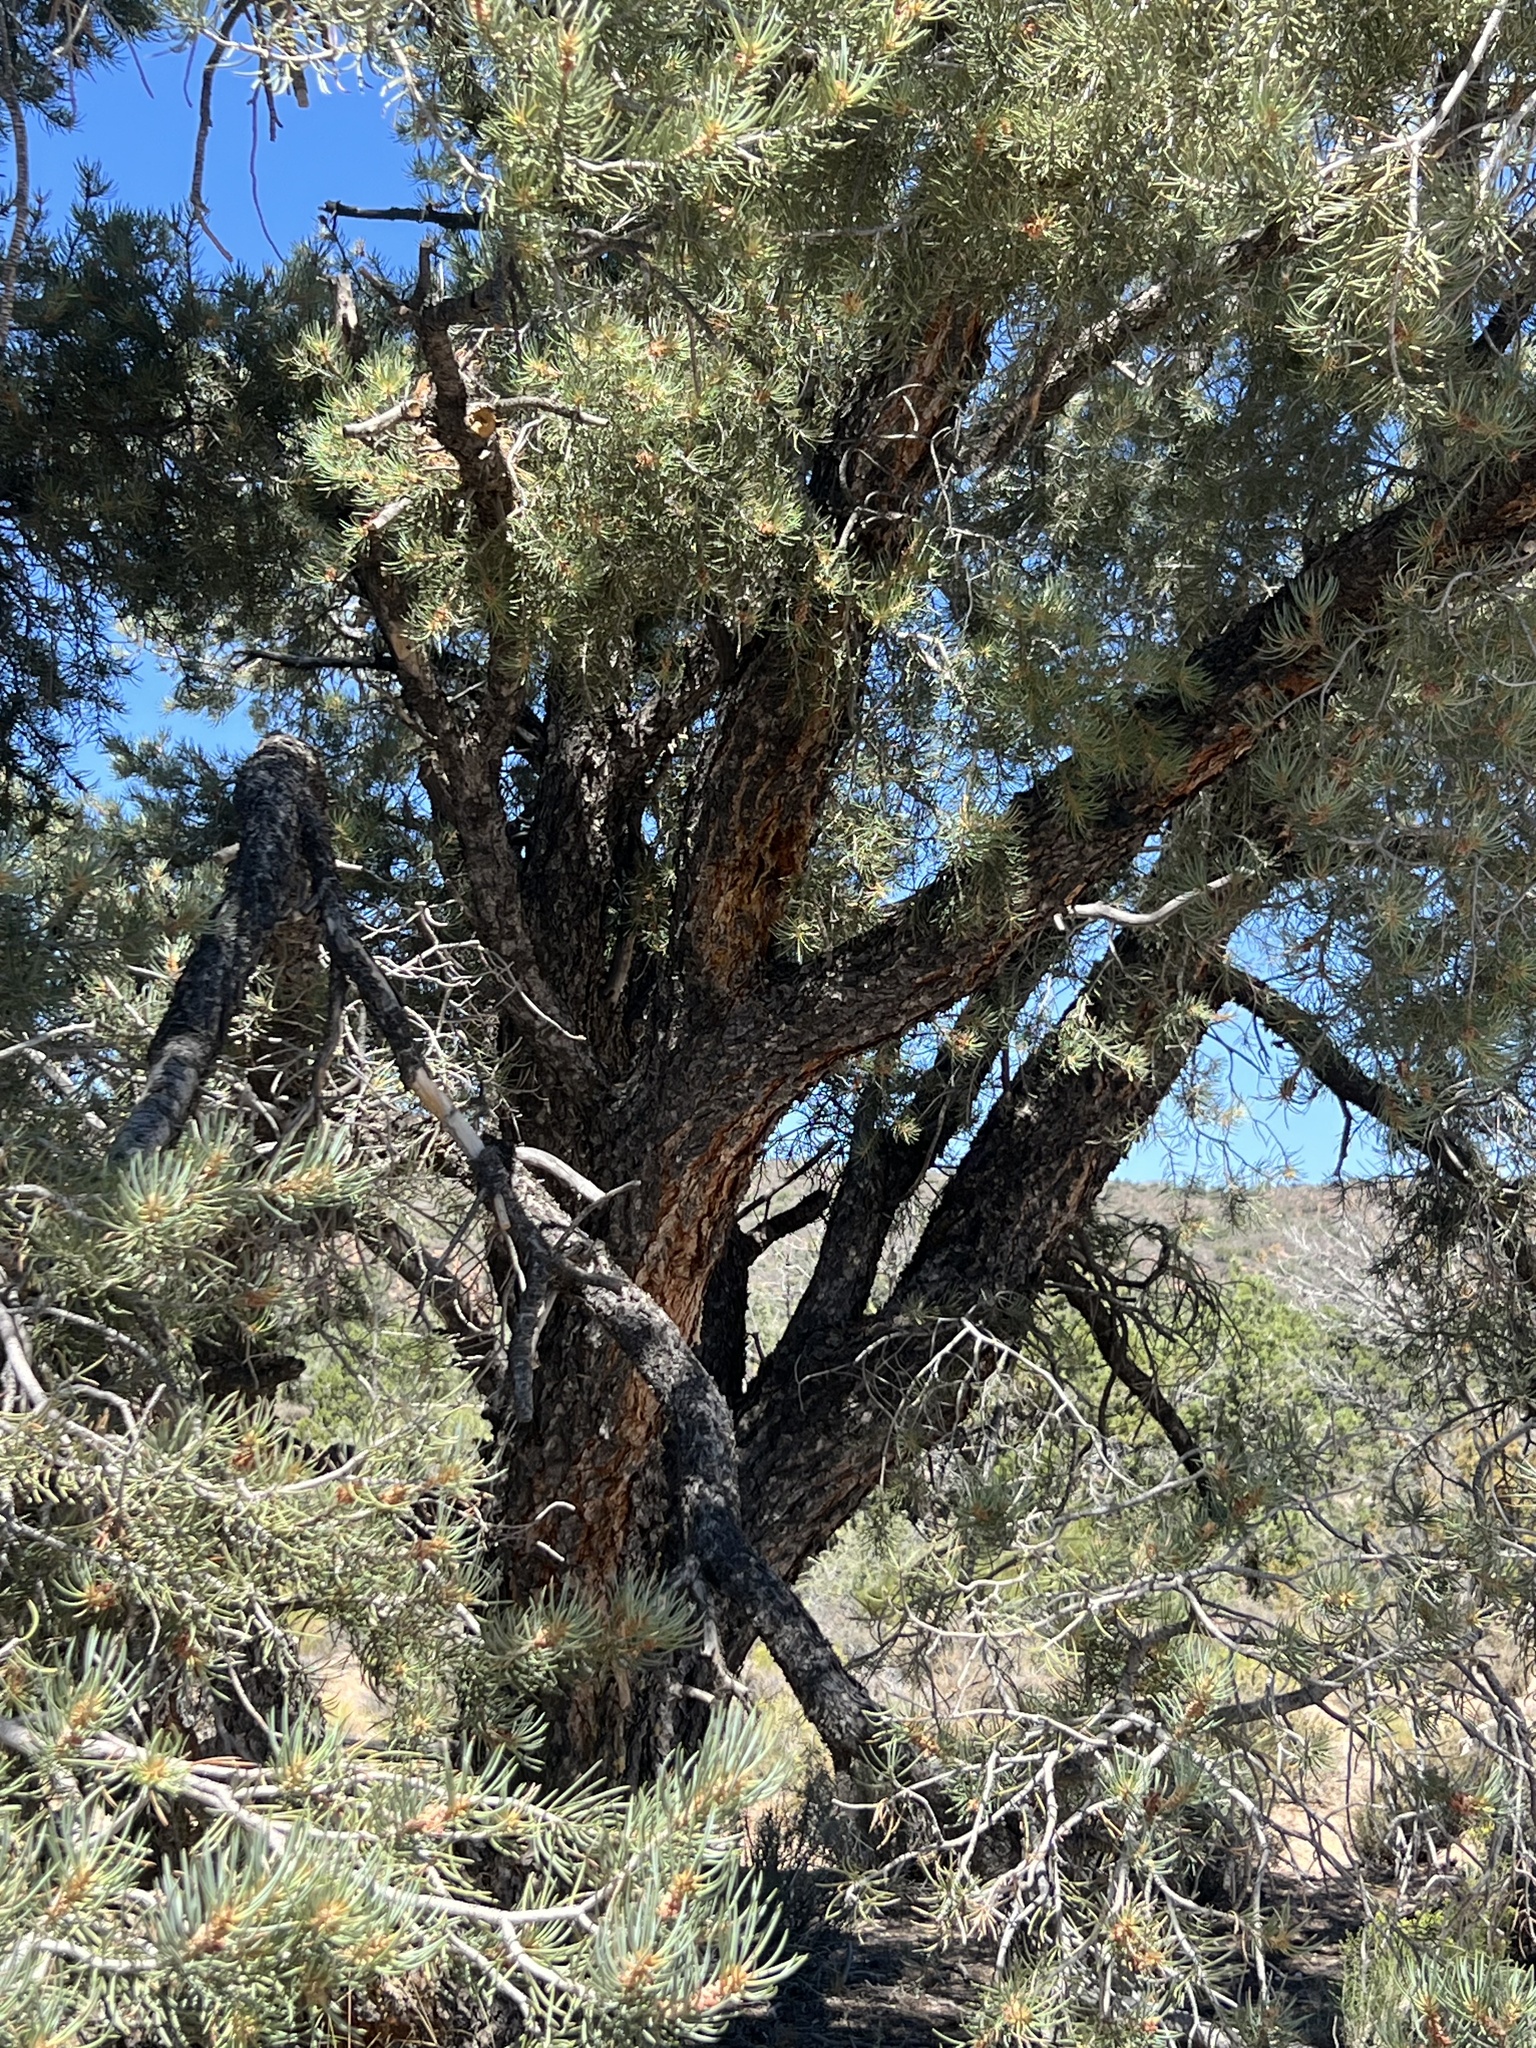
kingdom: Plantae
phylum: Tracheophyta
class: Pinopsida
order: Pinales
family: Pinaceae
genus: Pinus
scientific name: Pinus monophylla
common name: One-leaved nut pine
